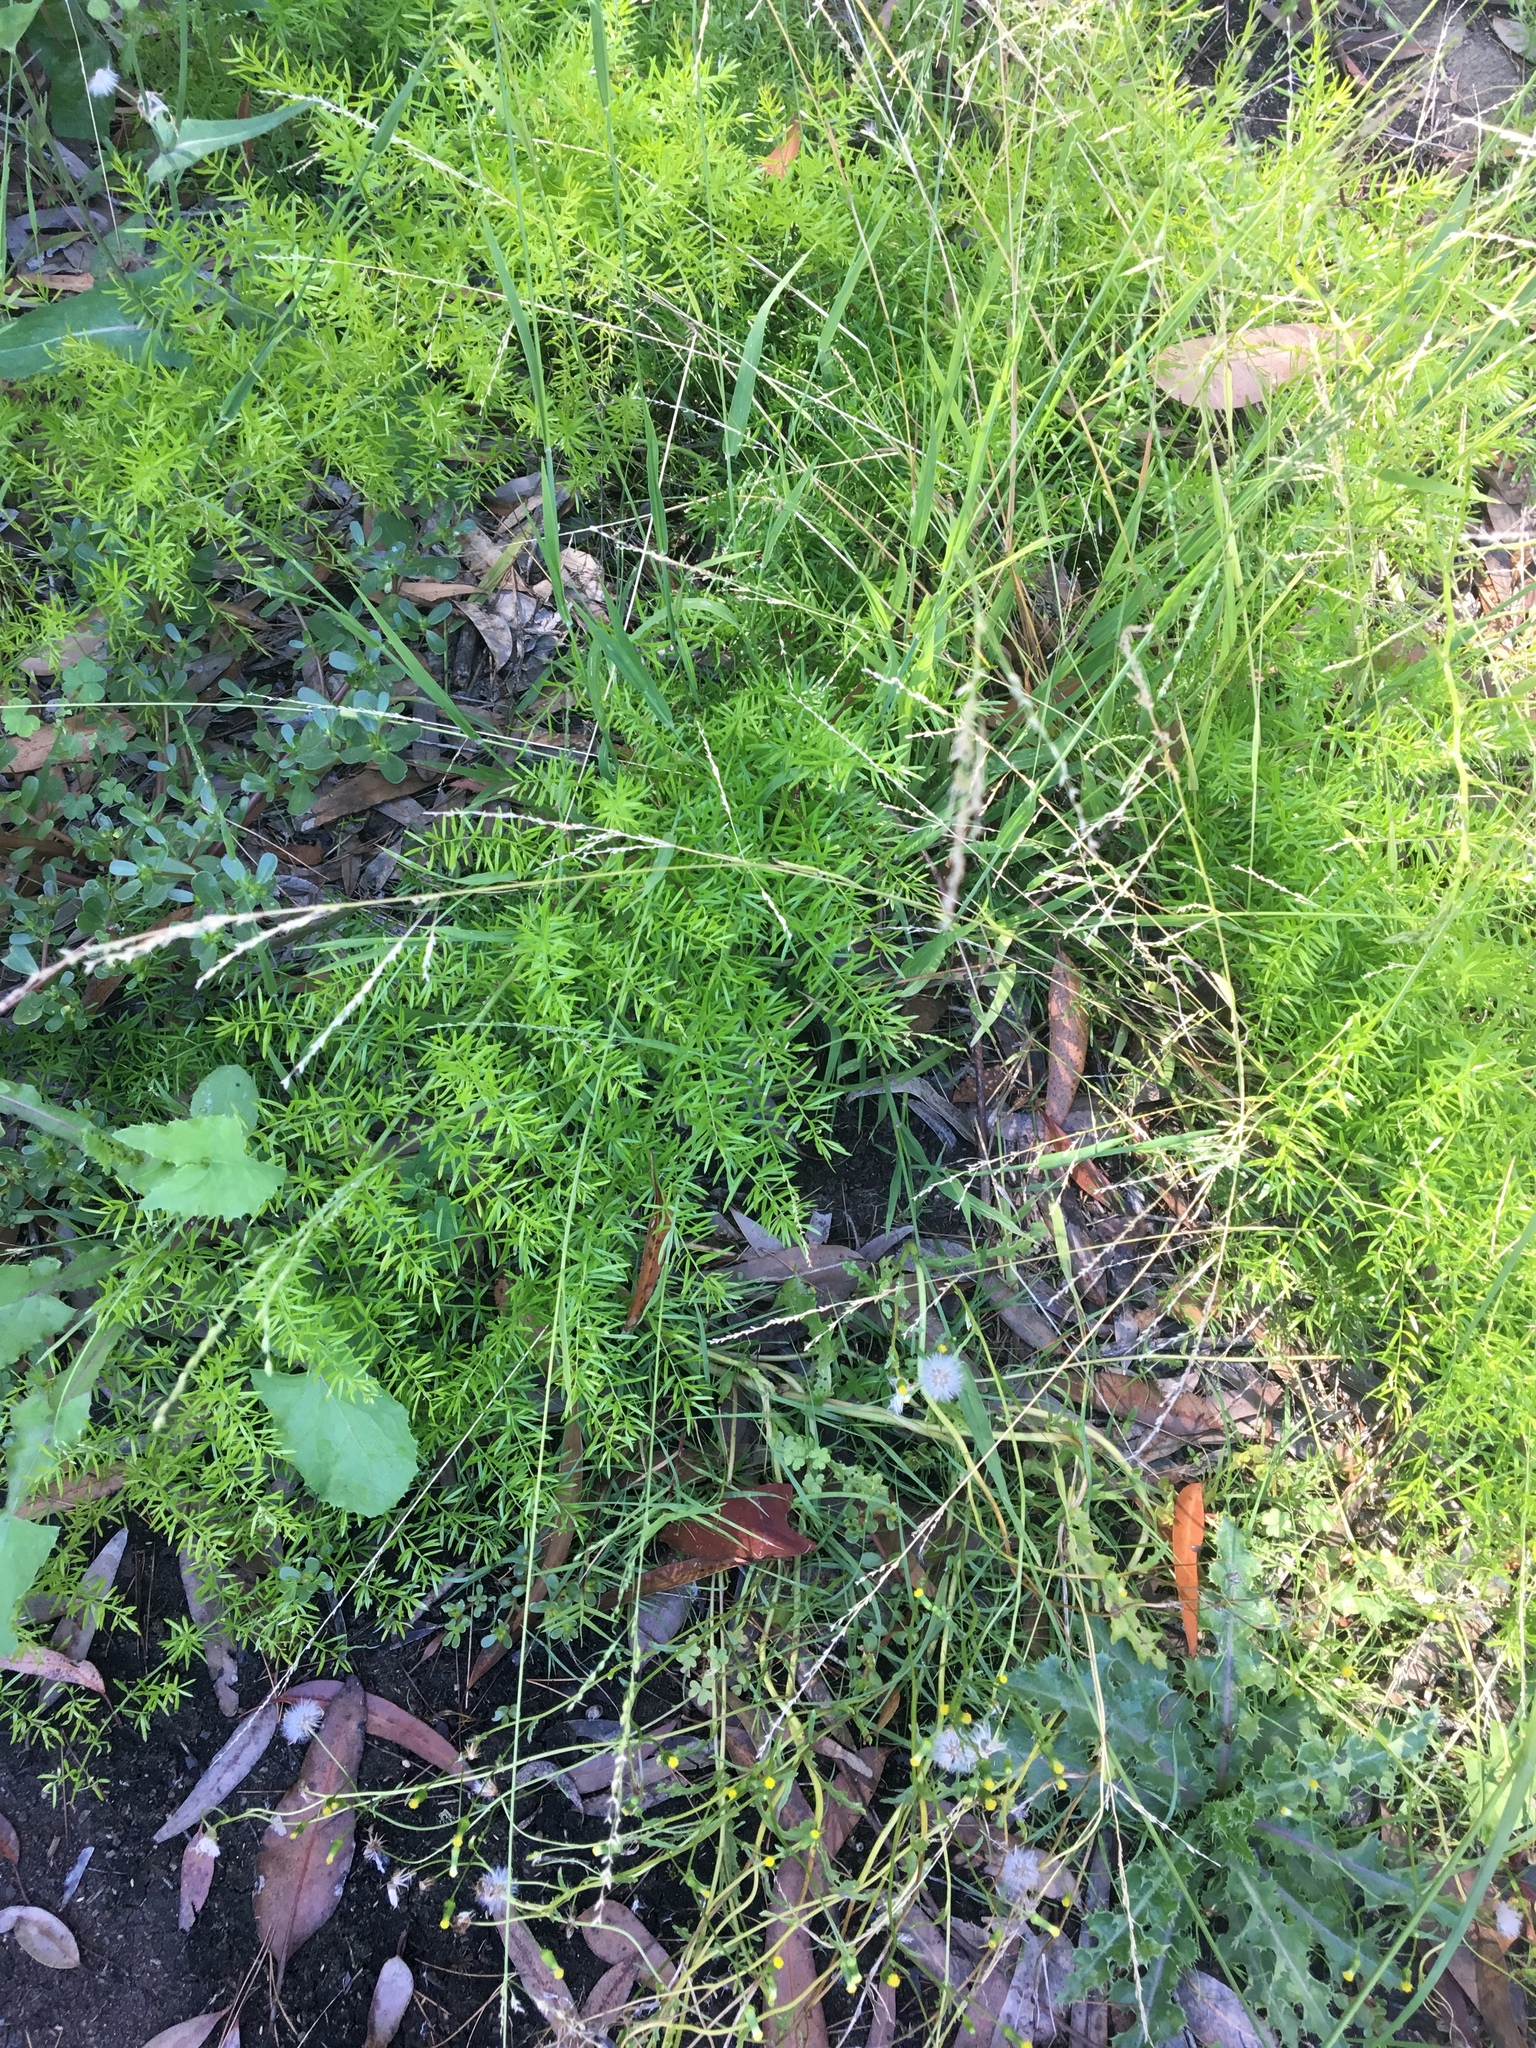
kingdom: Plantae
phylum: Tracheophyta
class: Liliopsida
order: Asparagales
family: Asparagaceae
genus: Asparagus
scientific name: Asparagus aethiopicus
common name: Sprenger's asparagus fern
